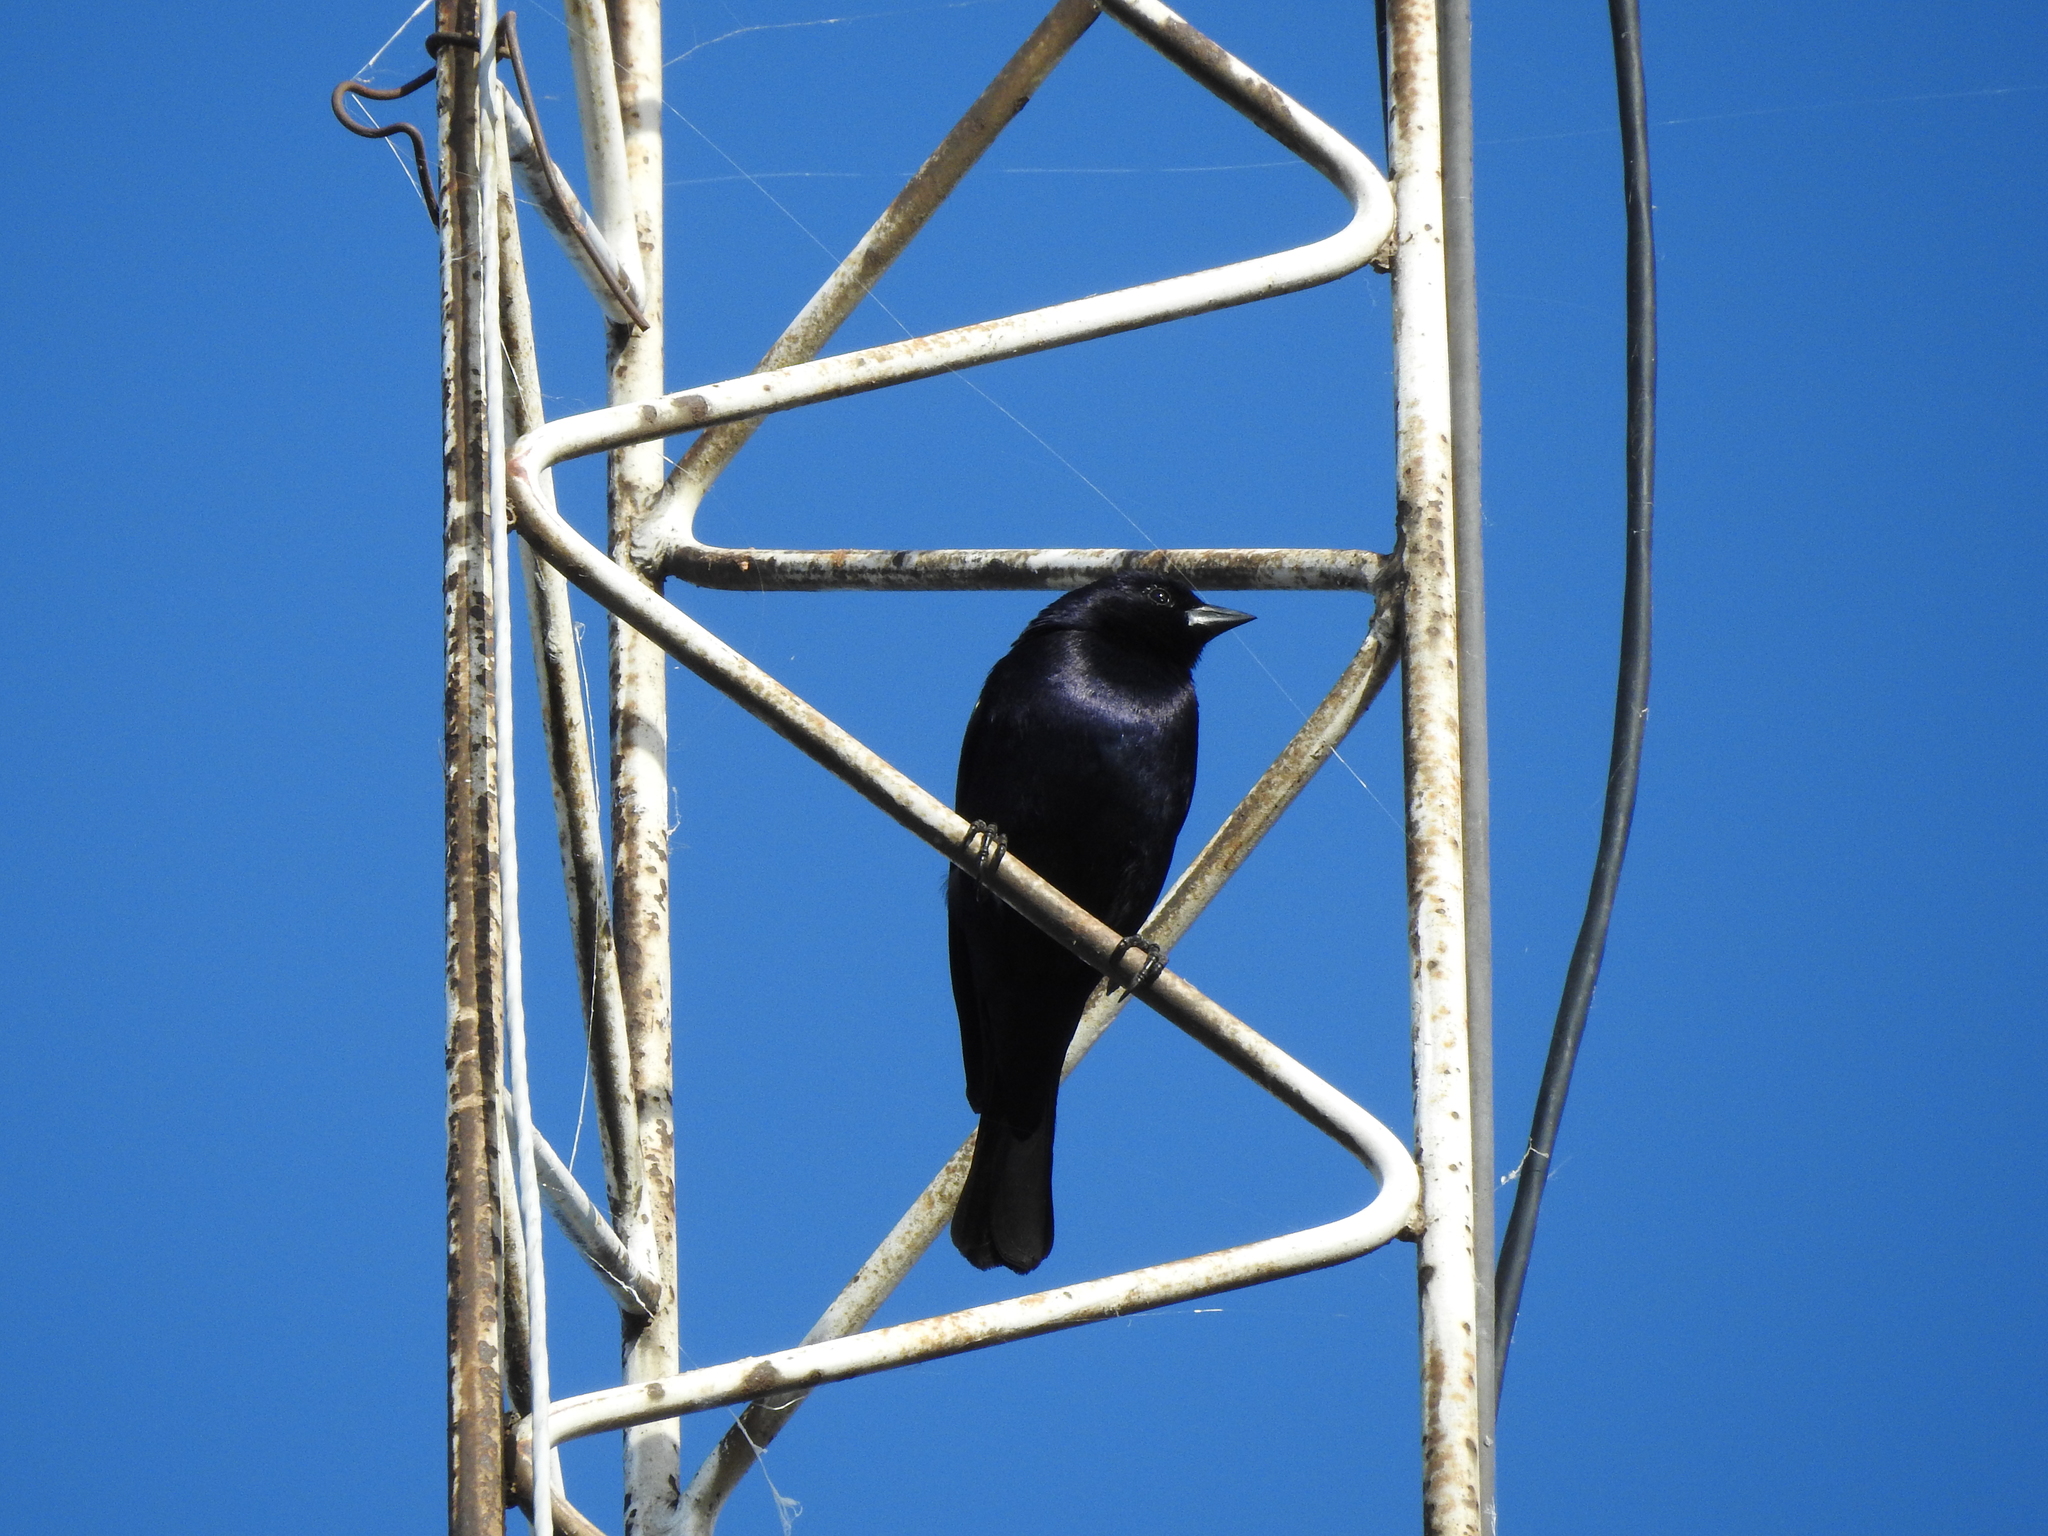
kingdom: Animalia
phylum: Chordata
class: Aves
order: Passeriformes
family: Icteridae
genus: Molothrus
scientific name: Molothrus bonariensis
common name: Shiny cowbird
